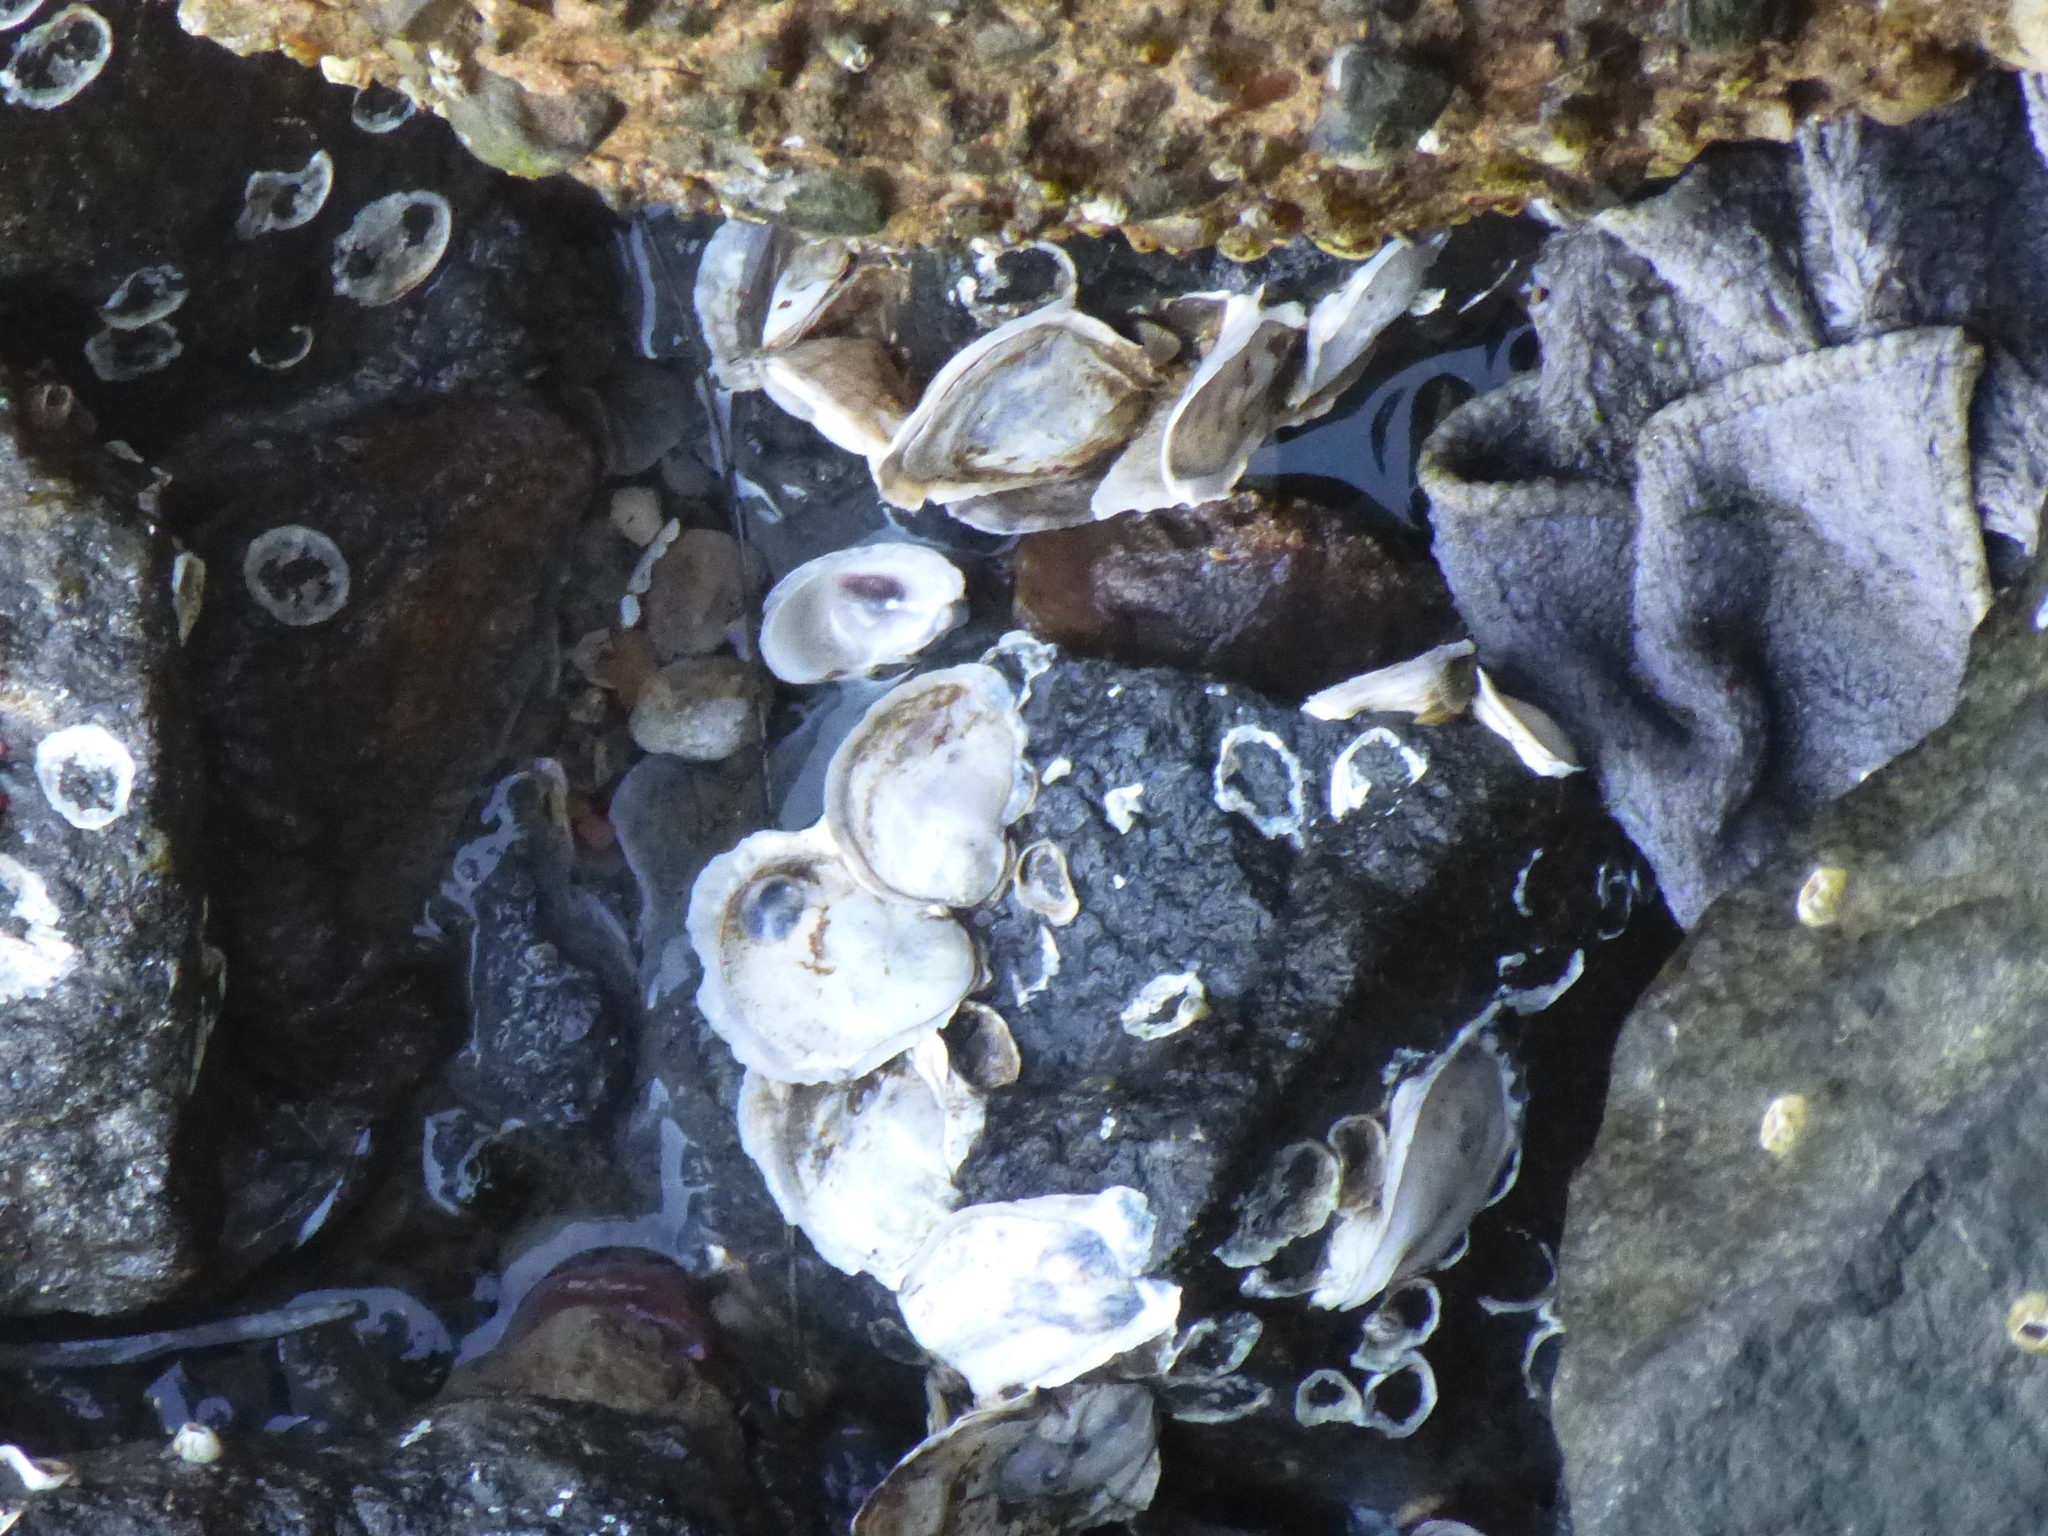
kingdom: Animalia
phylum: Mollusca
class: Bivalvia
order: Ostreida
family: Ostreidae
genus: Crassostrea
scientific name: Crassostrea virginica
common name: American oyster
